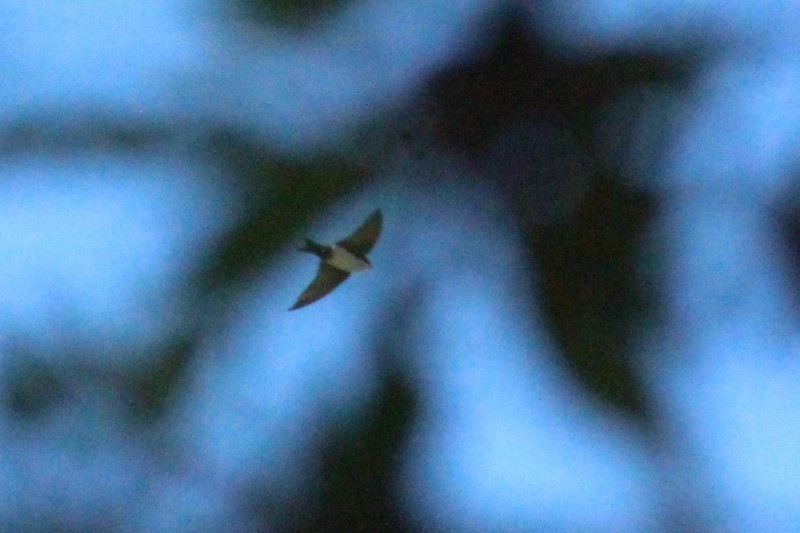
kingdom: Animalia
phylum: Chordata
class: Aves
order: Passeriformes
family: Hirundinidae
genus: Notiochelidon
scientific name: Notiochelidon cyanoleuca
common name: Blue-and-white swallow
